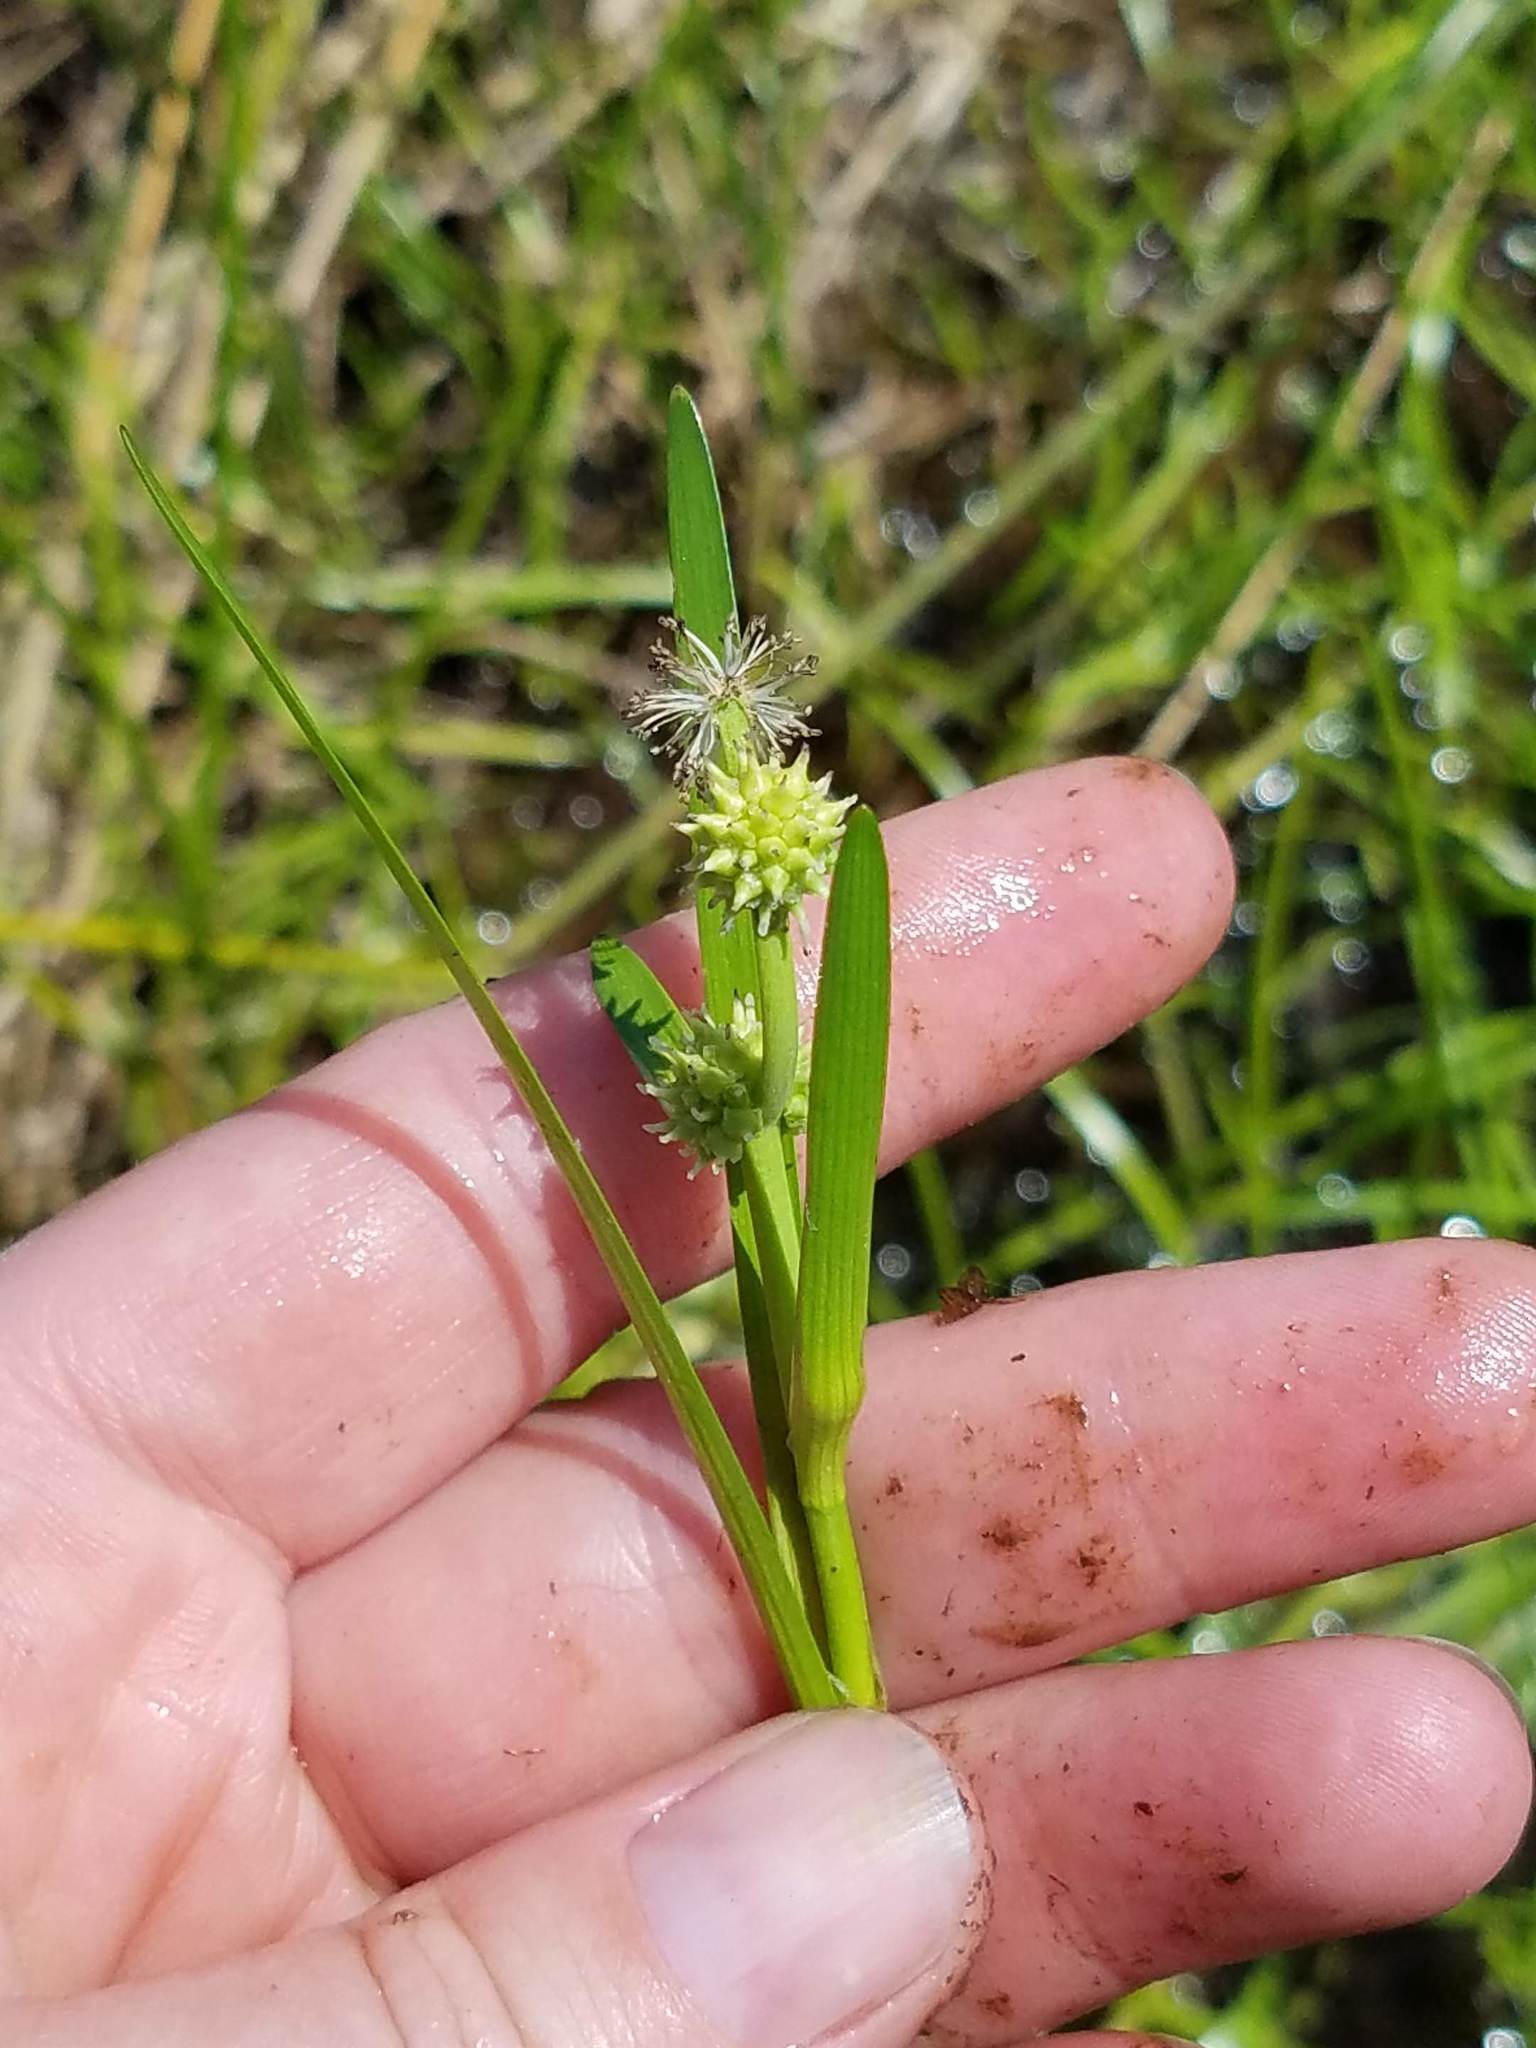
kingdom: Plantae
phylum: Tracheophyta
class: Liliopsida
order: Poales
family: Typhaceae
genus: Sparganium
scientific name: Sparganium natans
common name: Least bur-reed
